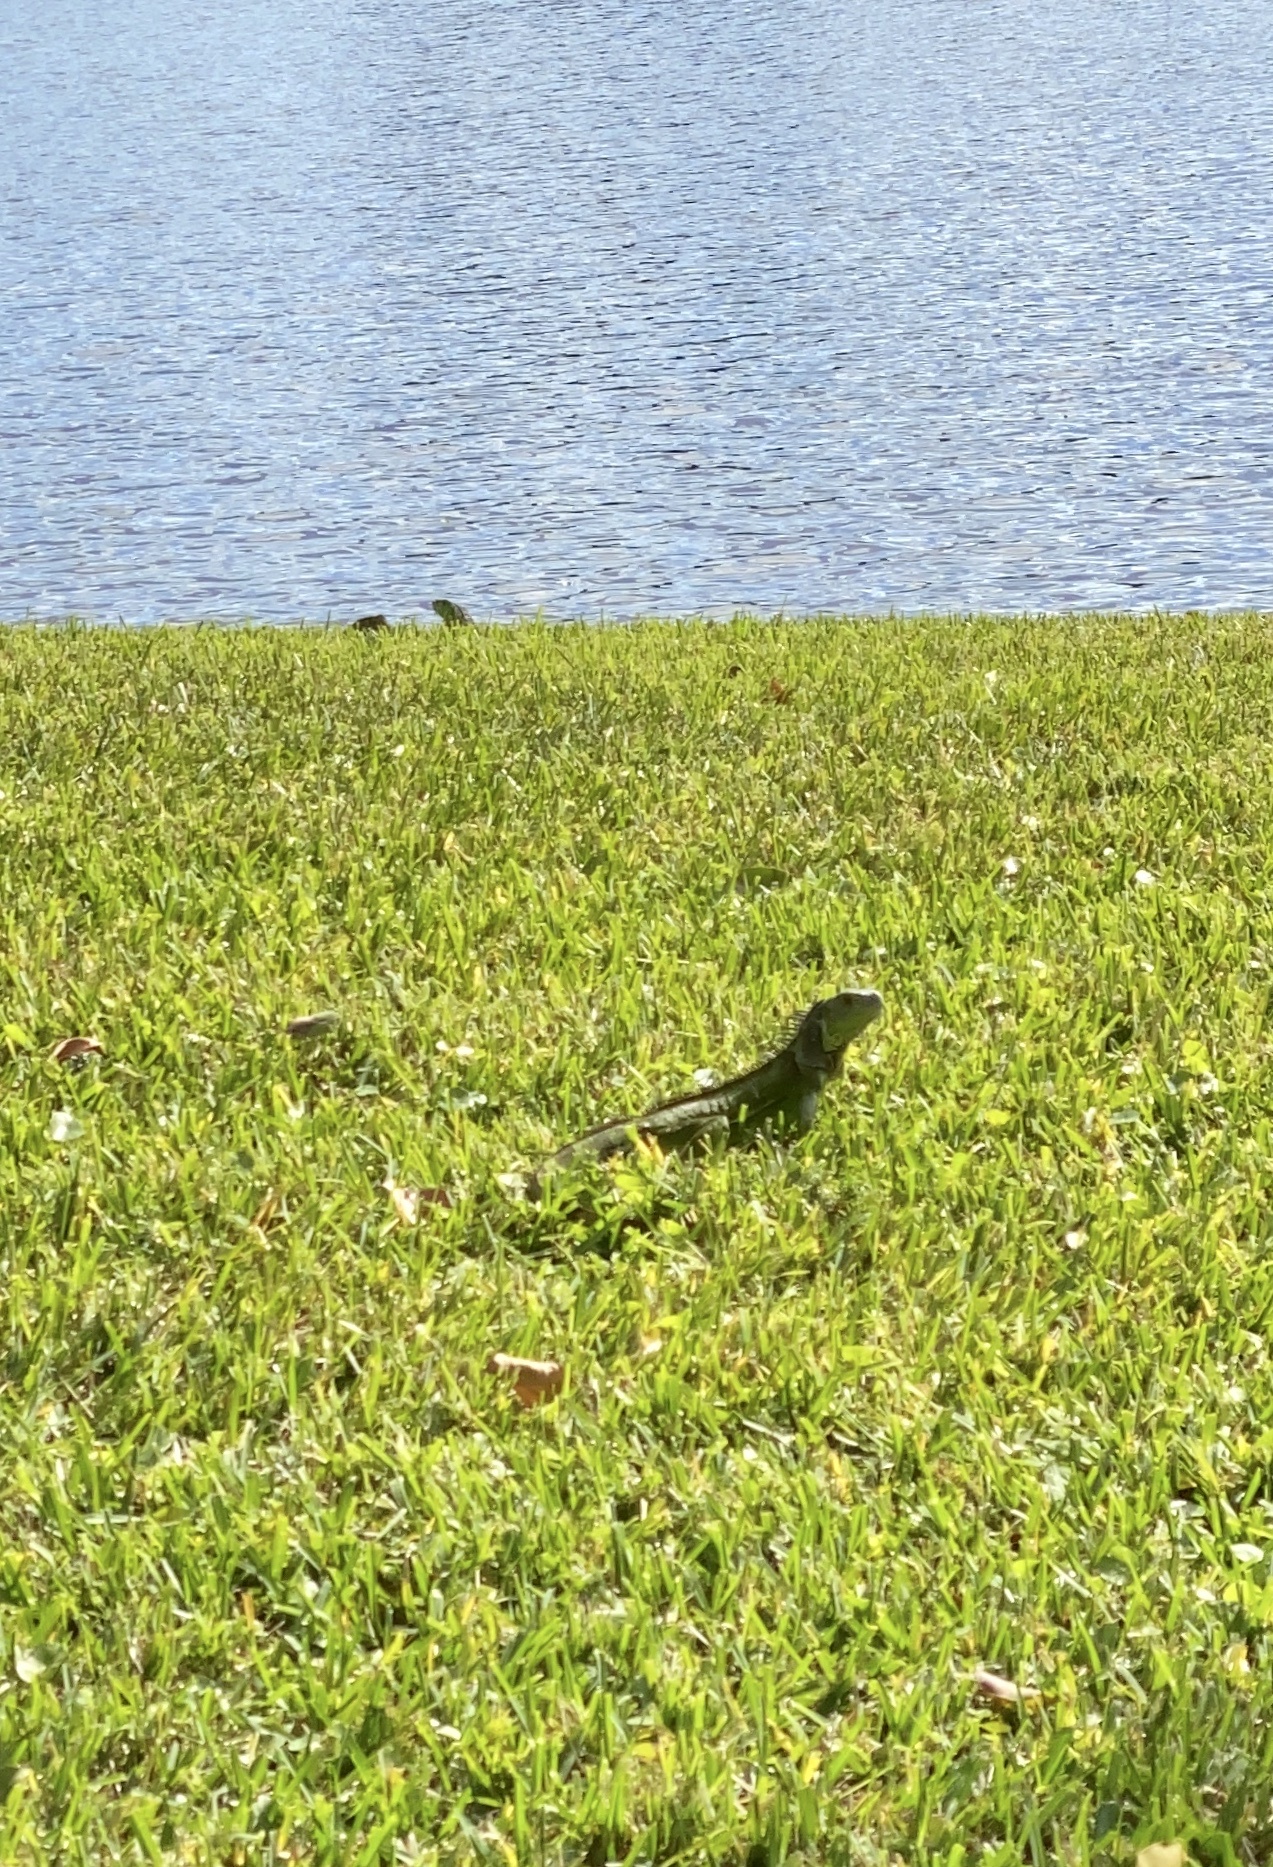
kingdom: Animalia
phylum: Chordata
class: Squamata
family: Iguanidae
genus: Iguana
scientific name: Iguana iguana
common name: Green iguana
